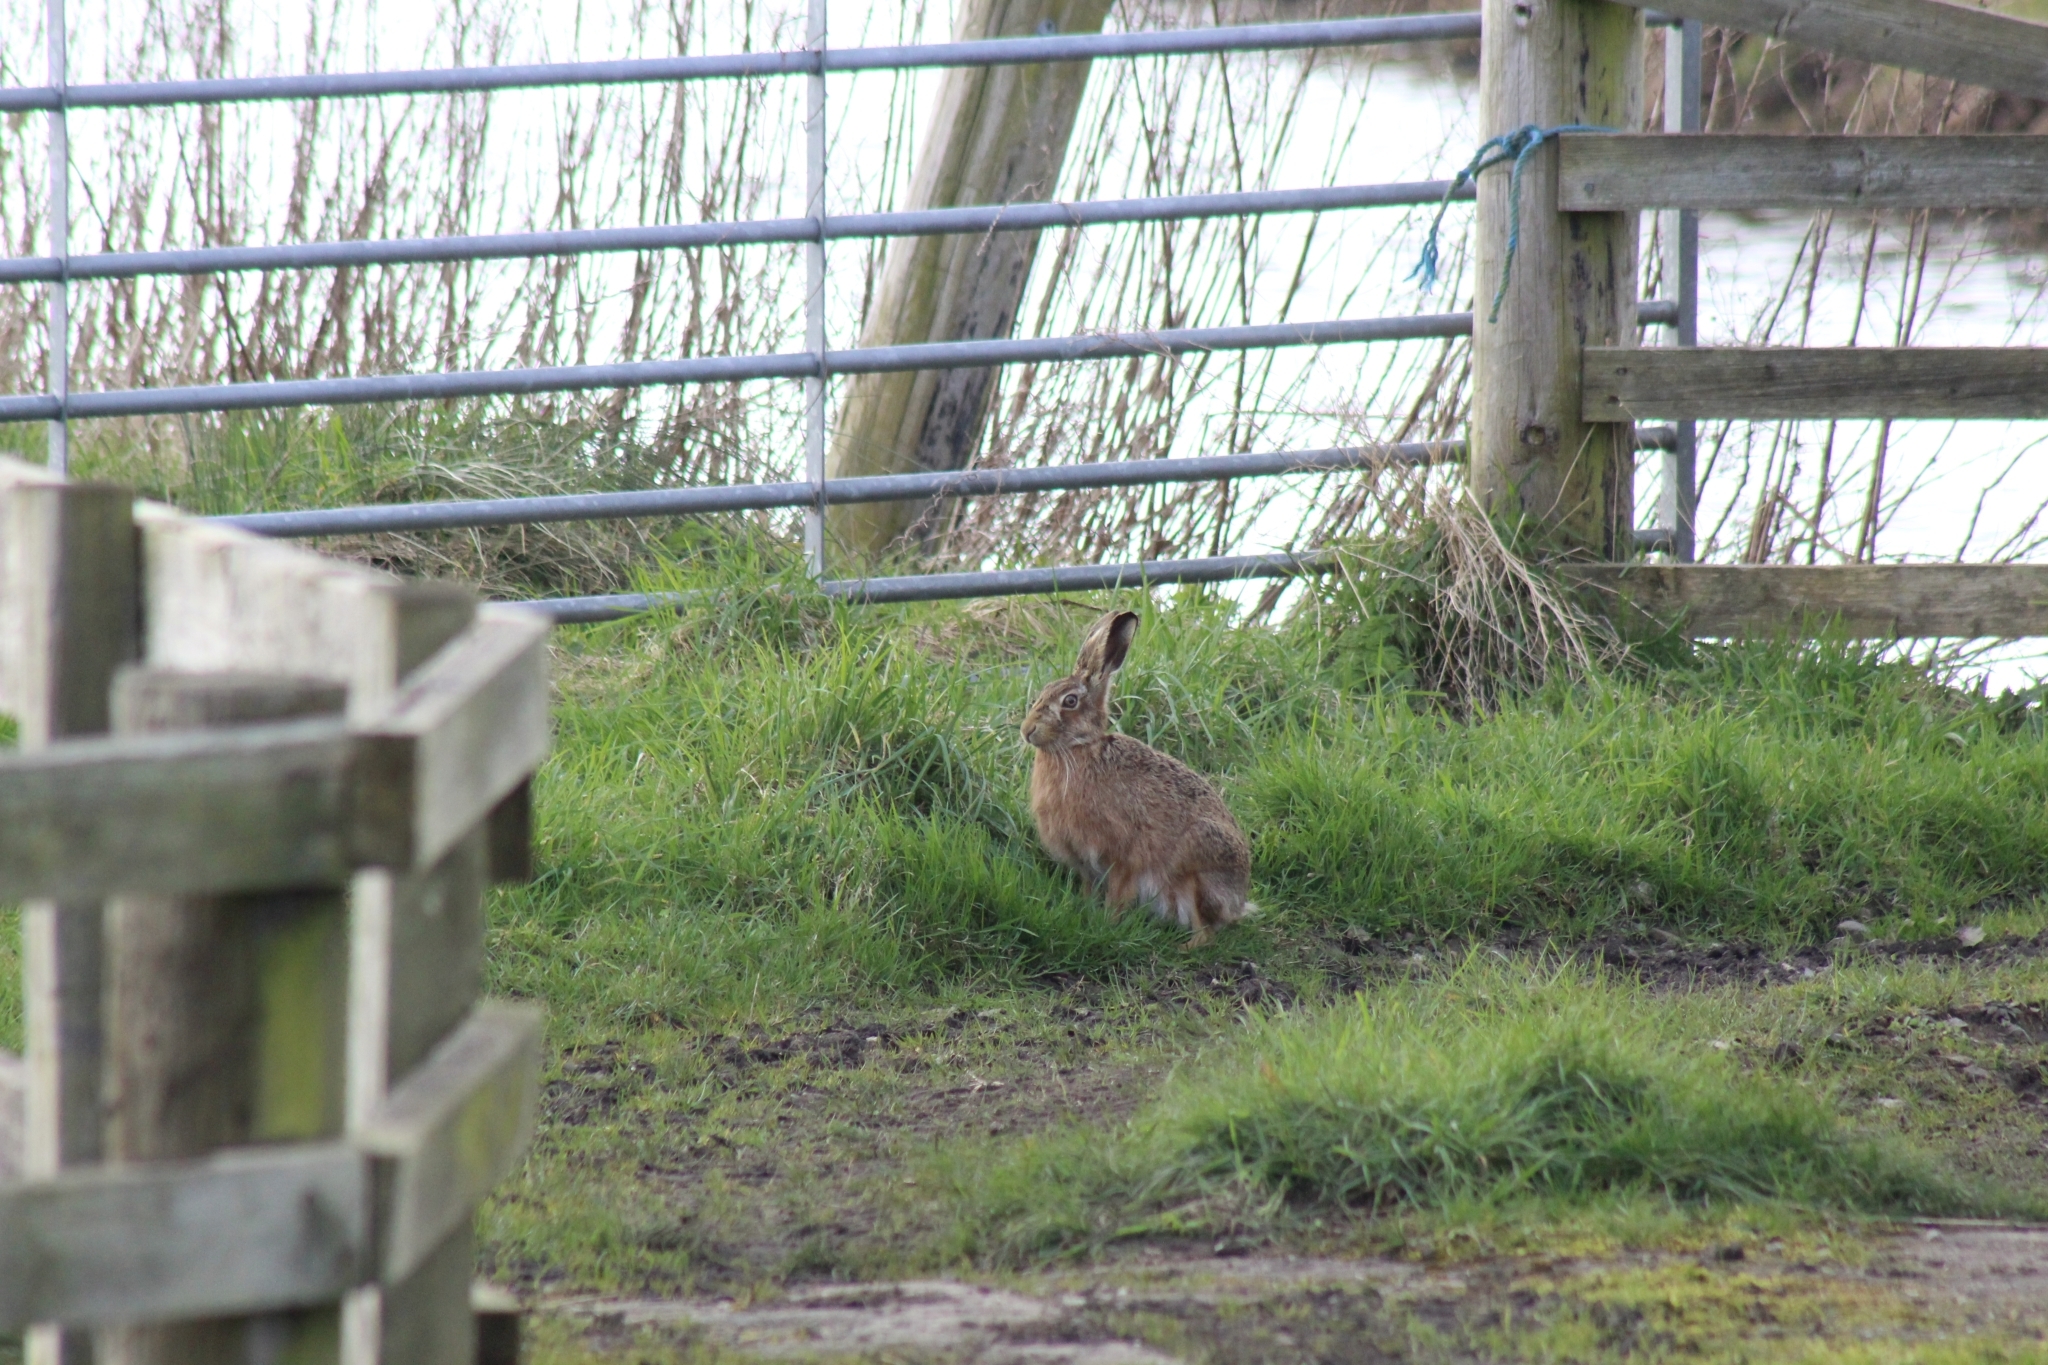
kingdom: Animalia
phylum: Chordata
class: Mammalia
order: Lagomorpha
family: Leporidae
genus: Lepus
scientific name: Lepus europaeus
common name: European hare
